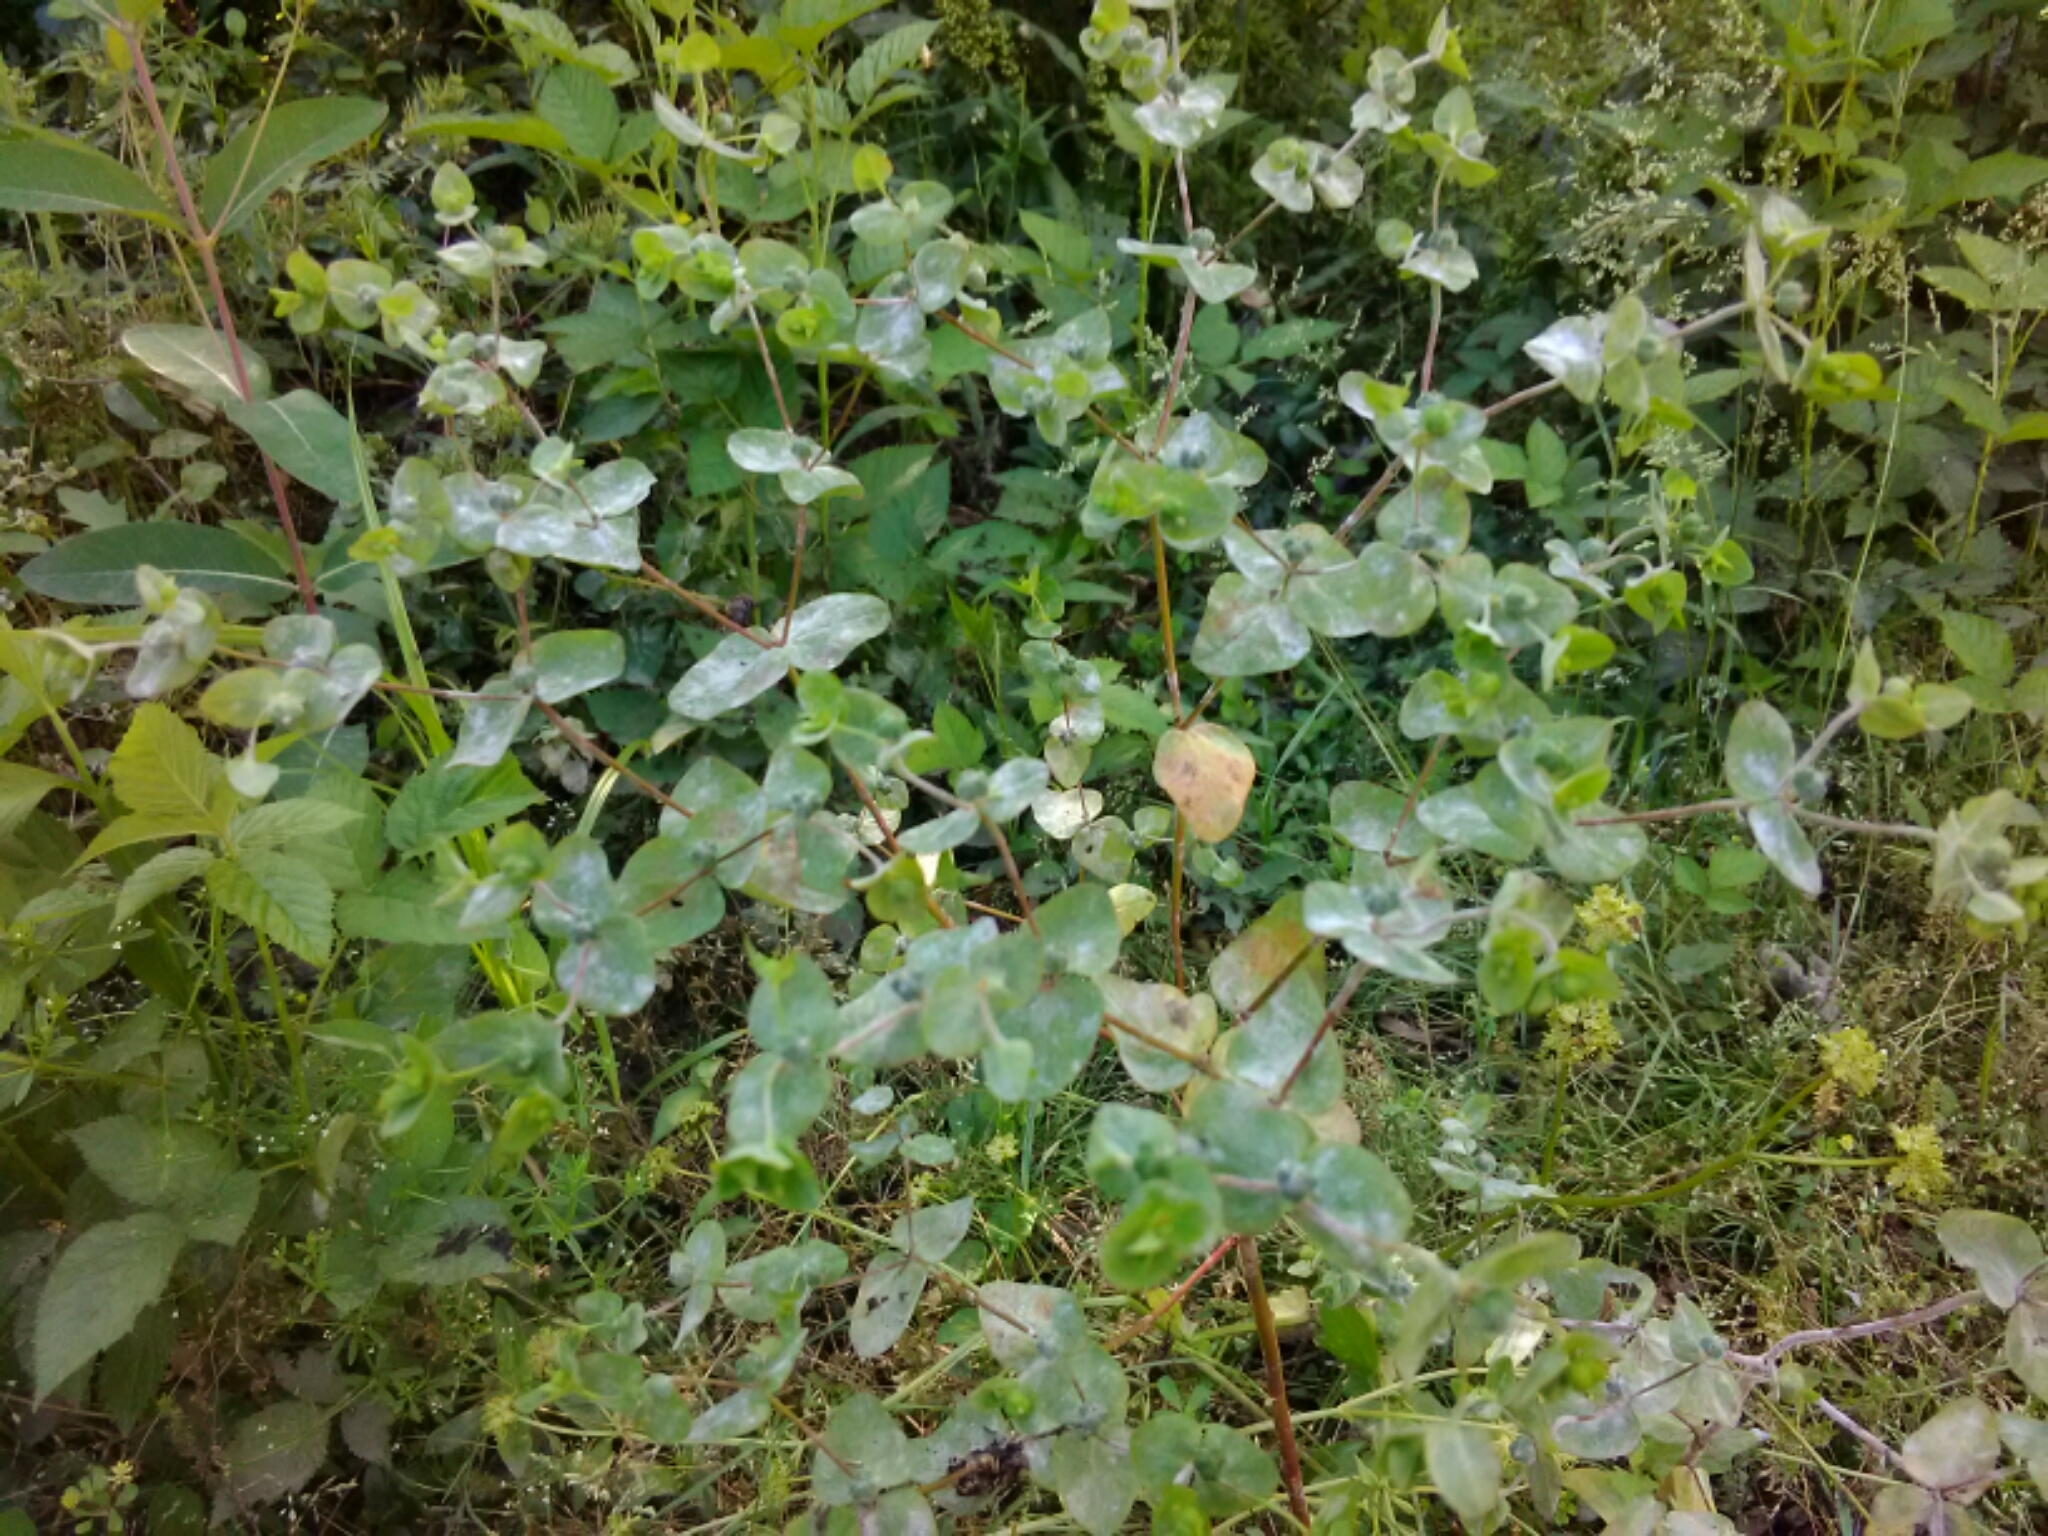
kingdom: Plantae
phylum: Tracheophyta
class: Magnoliopsida
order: Malpighiales
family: Euphorbiaceae
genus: Euphorbia
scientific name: Euphorbia spathulata
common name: Blunt spurge
